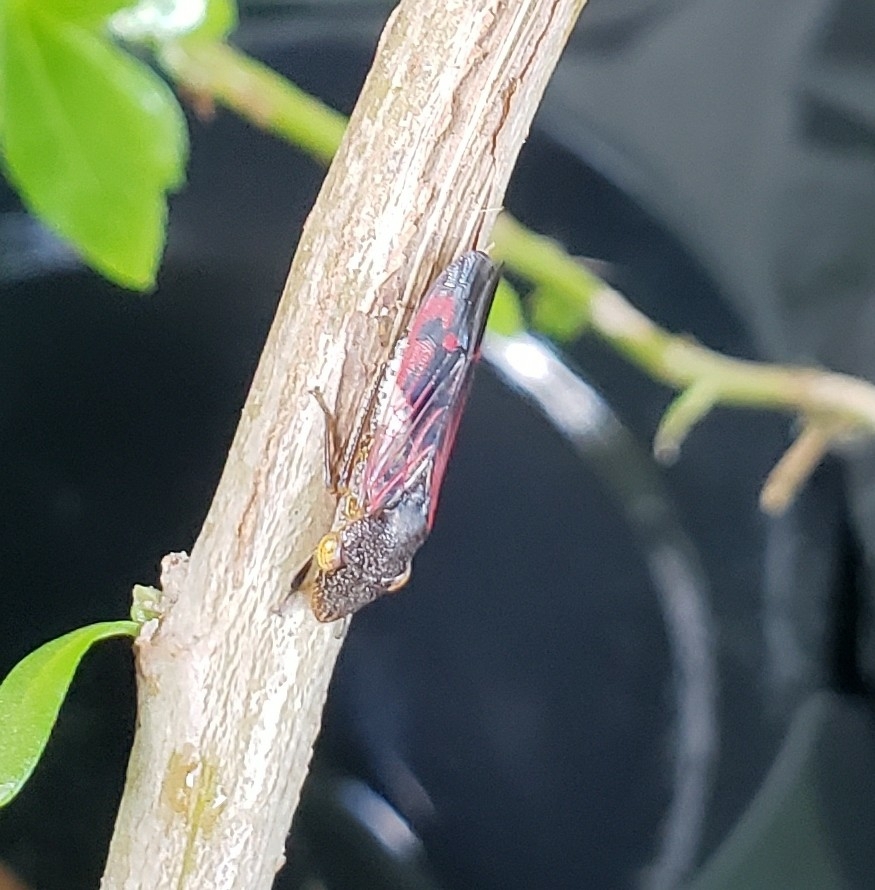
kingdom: Animalia
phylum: Arthropoda
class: Insecta
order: Hemiptera
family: Cicadellidae
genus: Homalodisca
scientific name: Homalodisca vitripennis
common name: Glassy-winged sharpshooter
